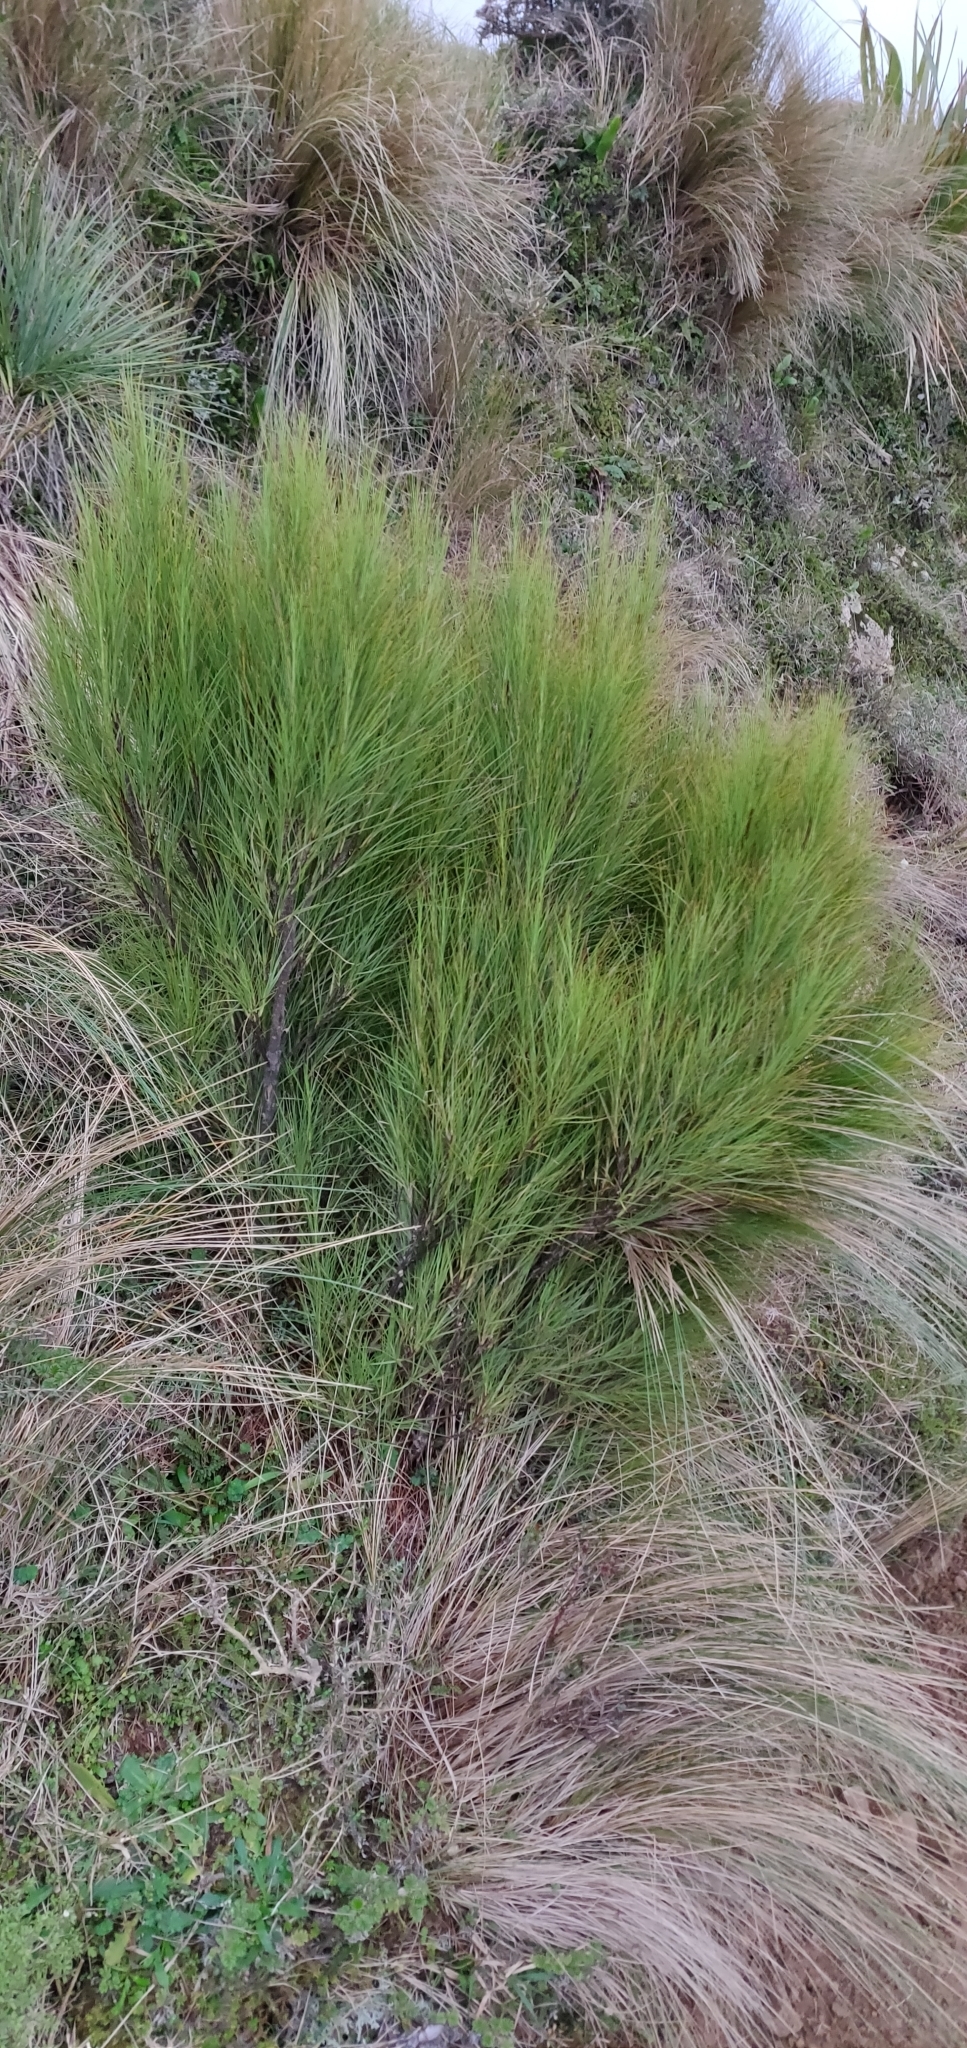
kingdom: Plantae
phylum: Tracheophyta
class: Magnoliopsida
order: Ericales
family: Ericaceae
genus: Dracophyllum
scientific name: Dracophyllum filifolium
